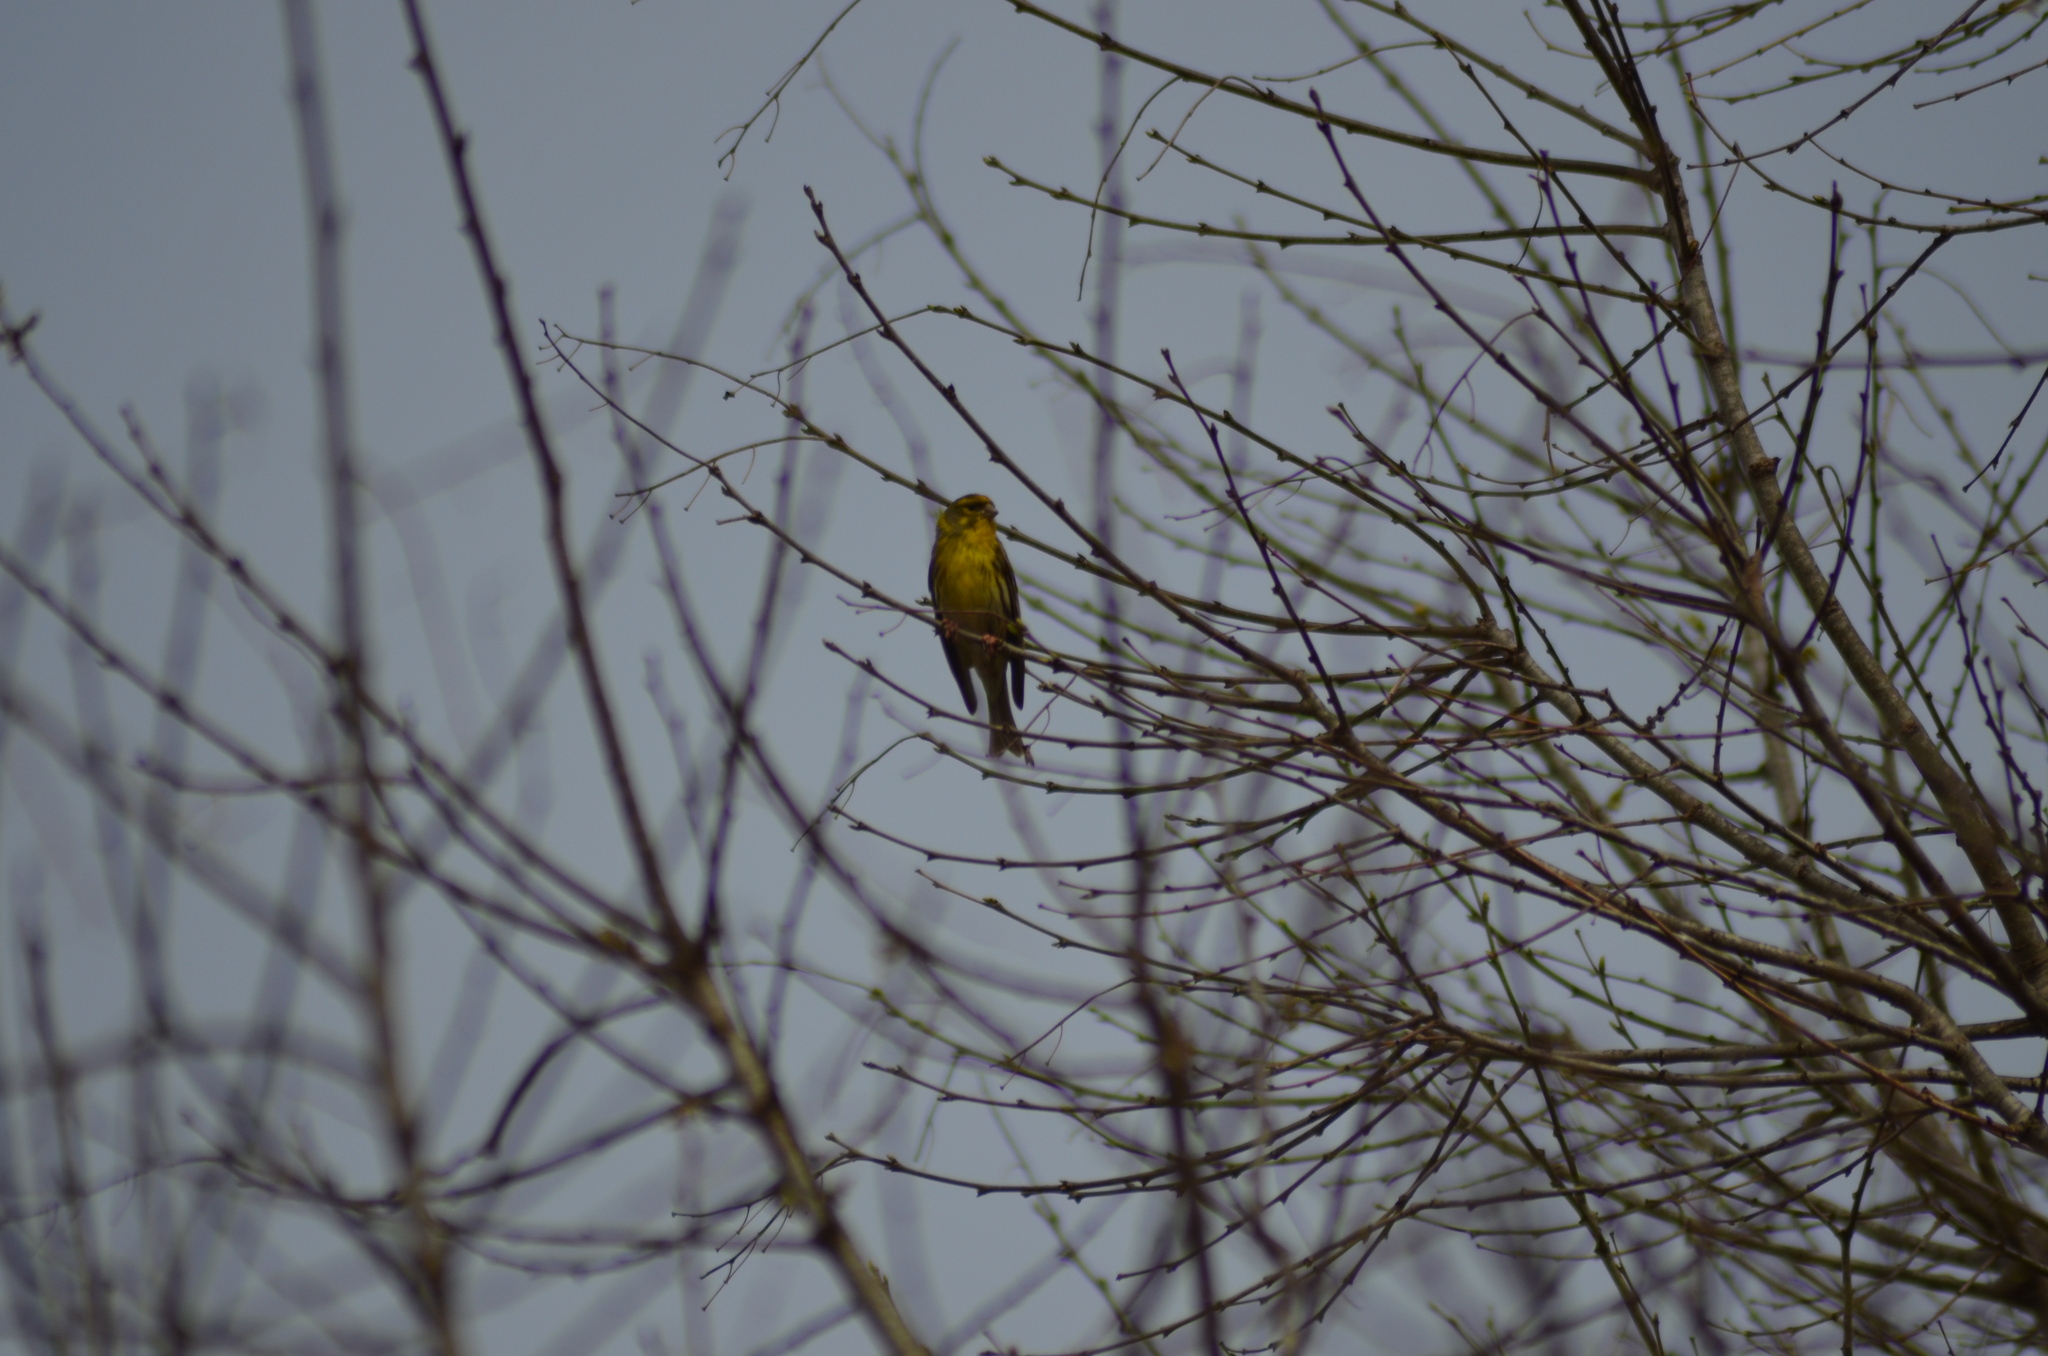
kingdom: Animalia
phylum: Chordata
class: Aves
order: Passeriformes
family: Fringillidae
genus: Serinus
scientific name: Serinus serinus
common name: European serin
